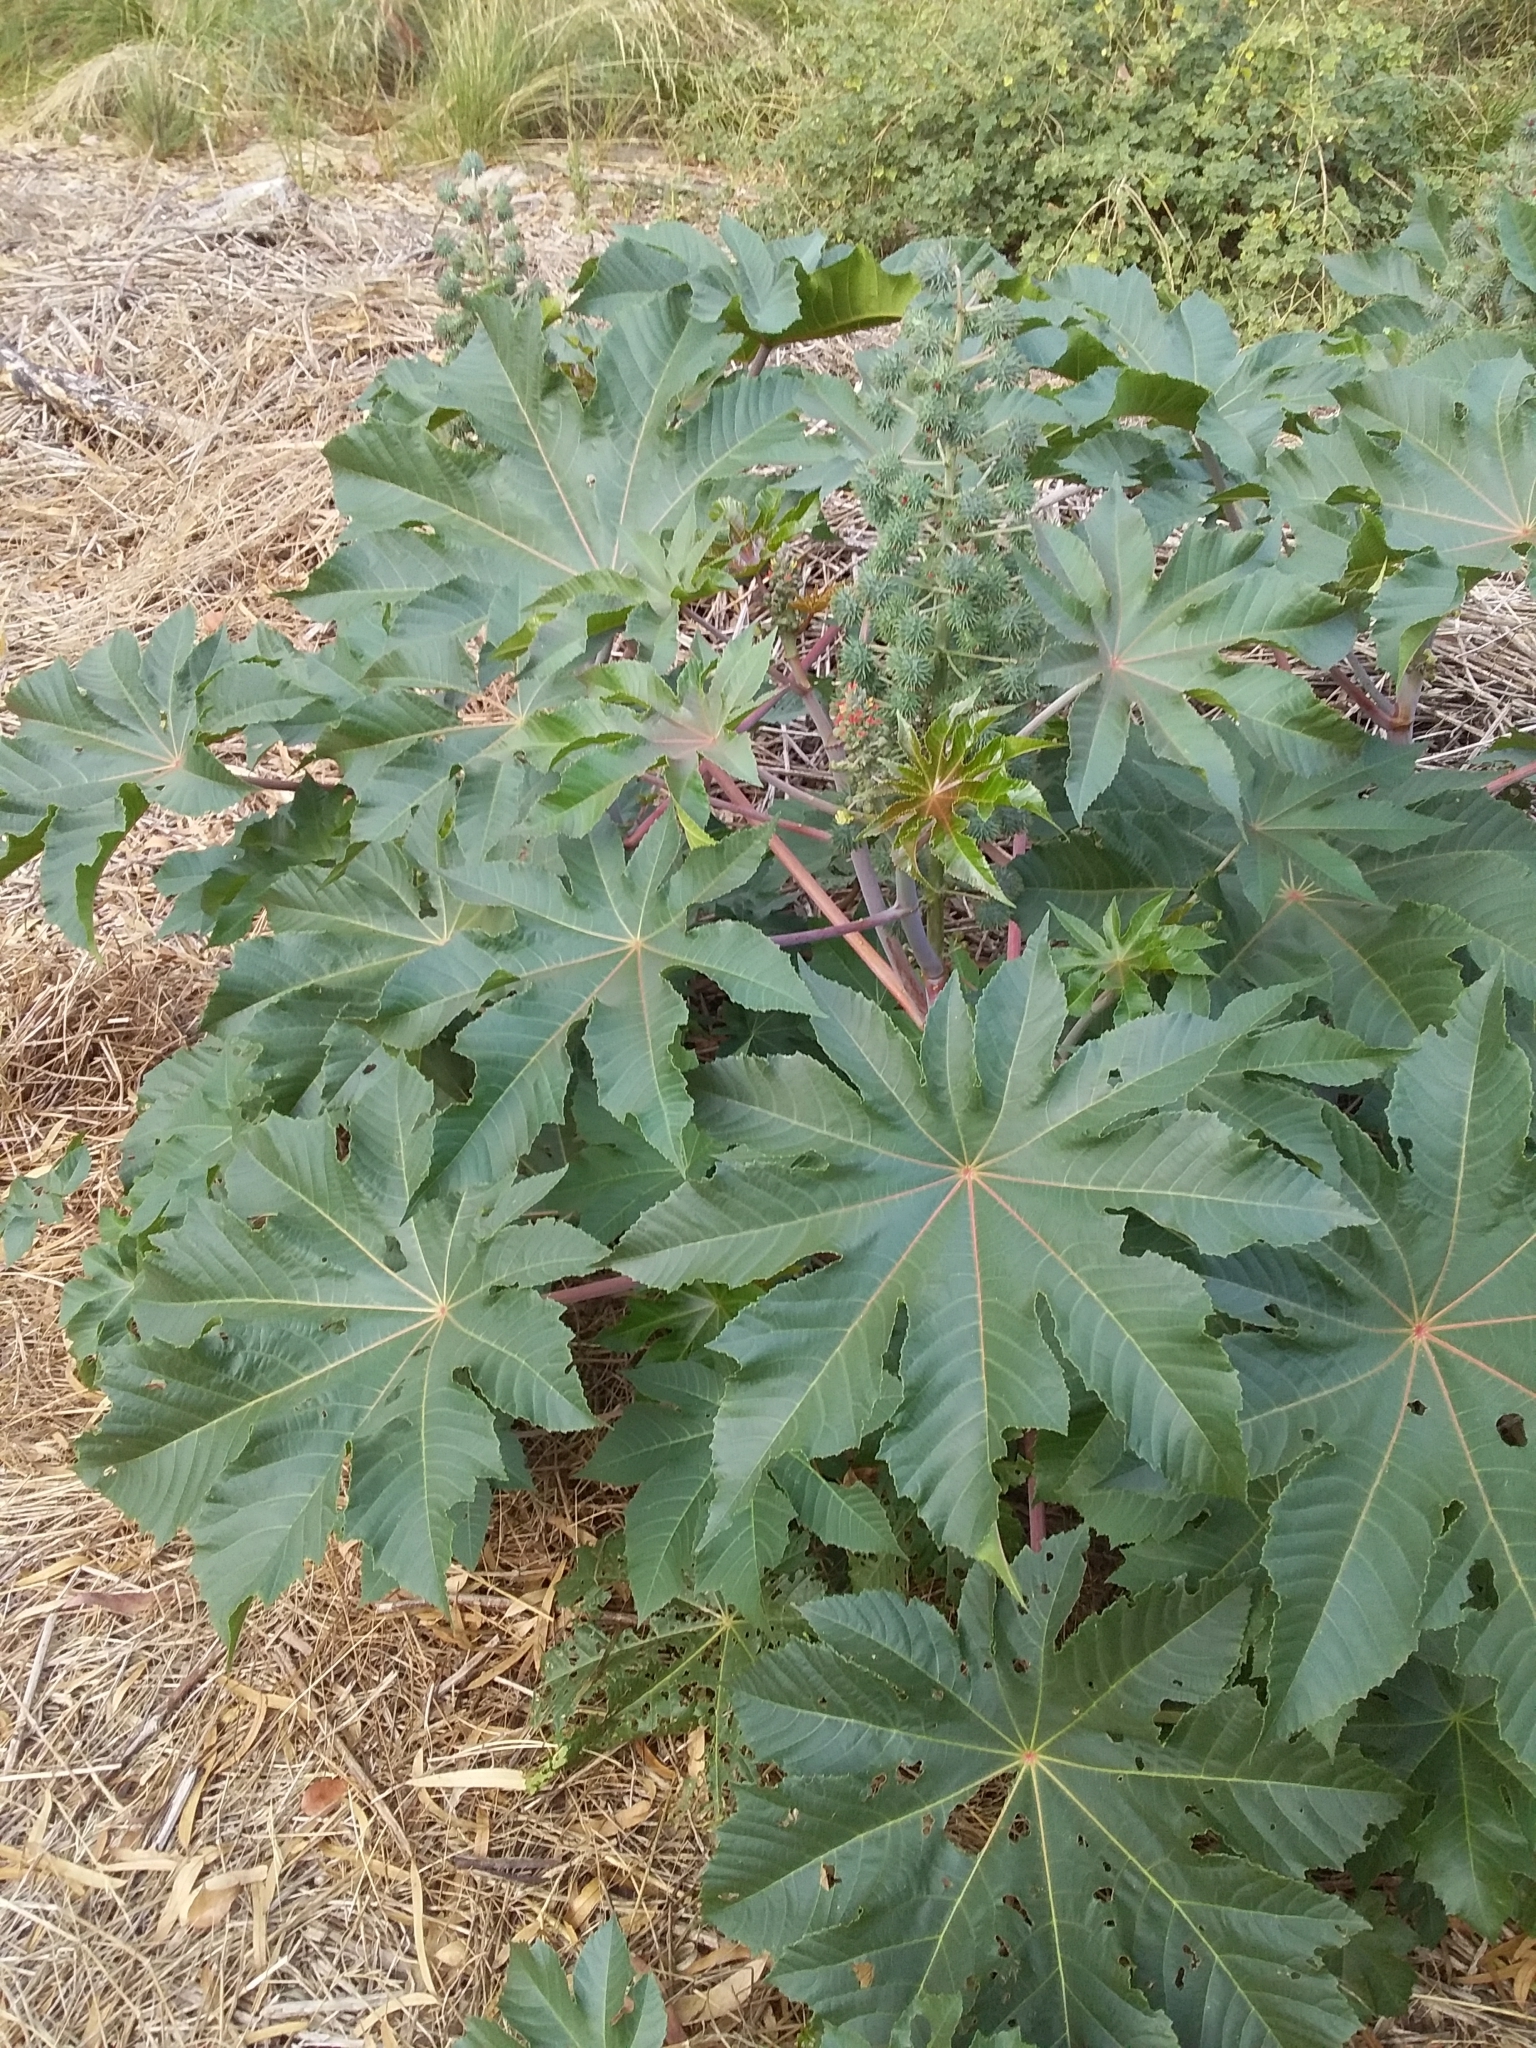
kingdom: Plantae
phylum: Tracheophyta
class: Magnoliopsida
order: Malpighiales
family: Euphorbiaceae
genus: Ricinus
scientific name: Ricinus communis
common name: Castor-oil-plant
